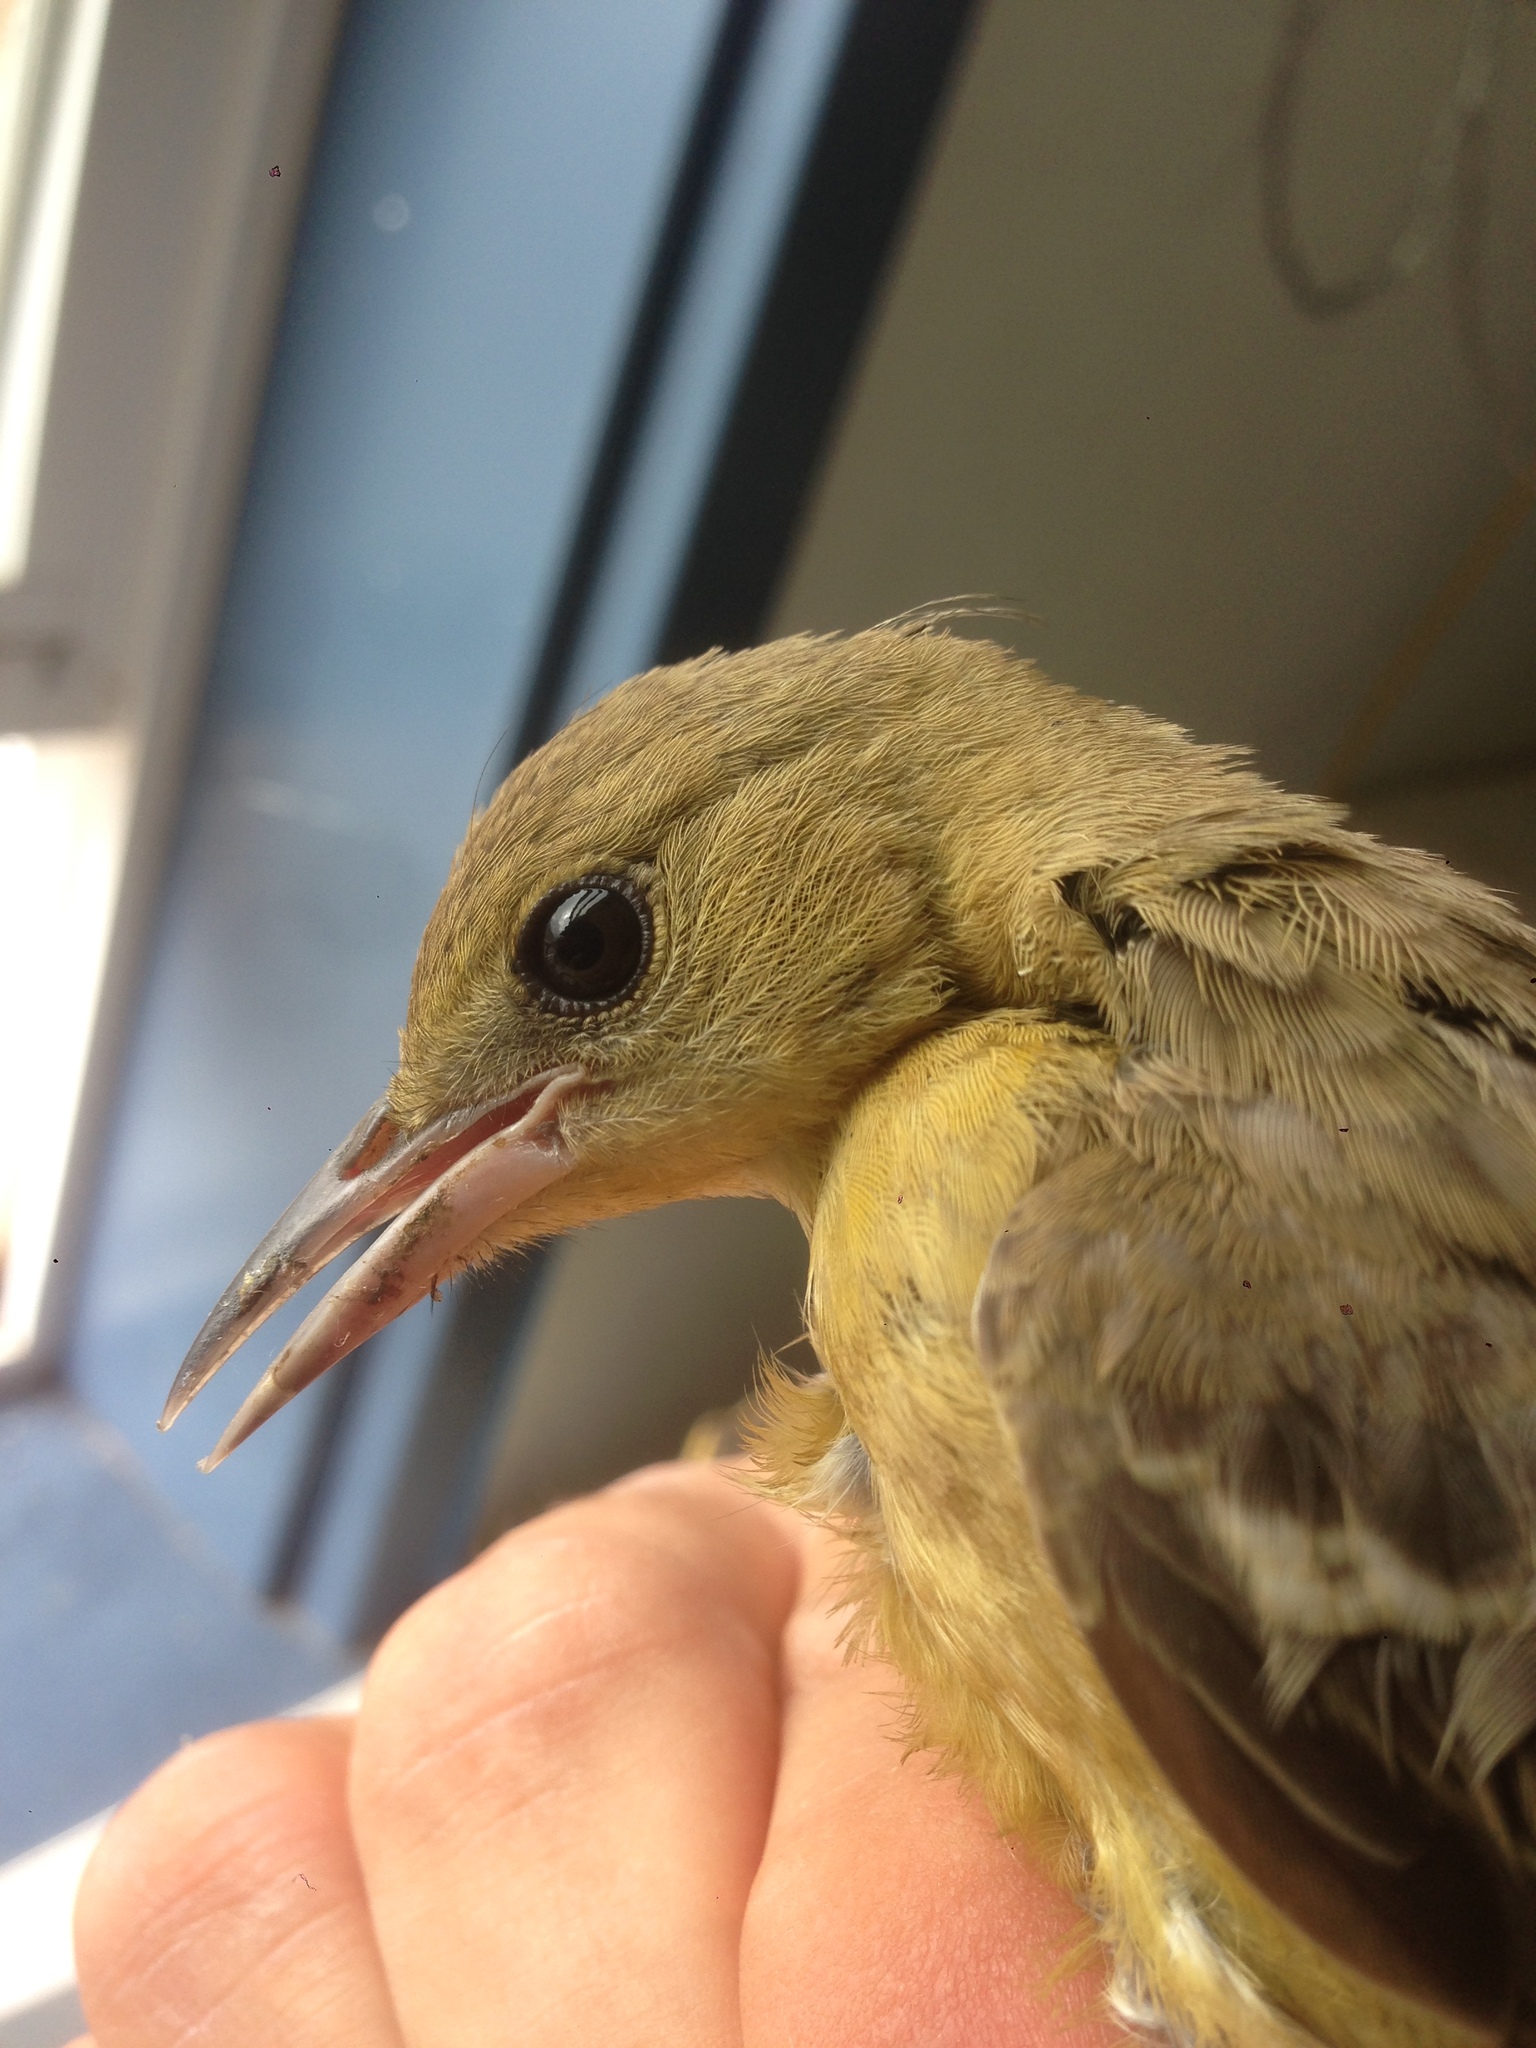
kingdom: Animalia
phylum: Chordata
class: Aves
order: Passeriformes
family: Icteridae
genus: Icterus
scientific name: Icterus cucullatus
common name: Hooded oriole
